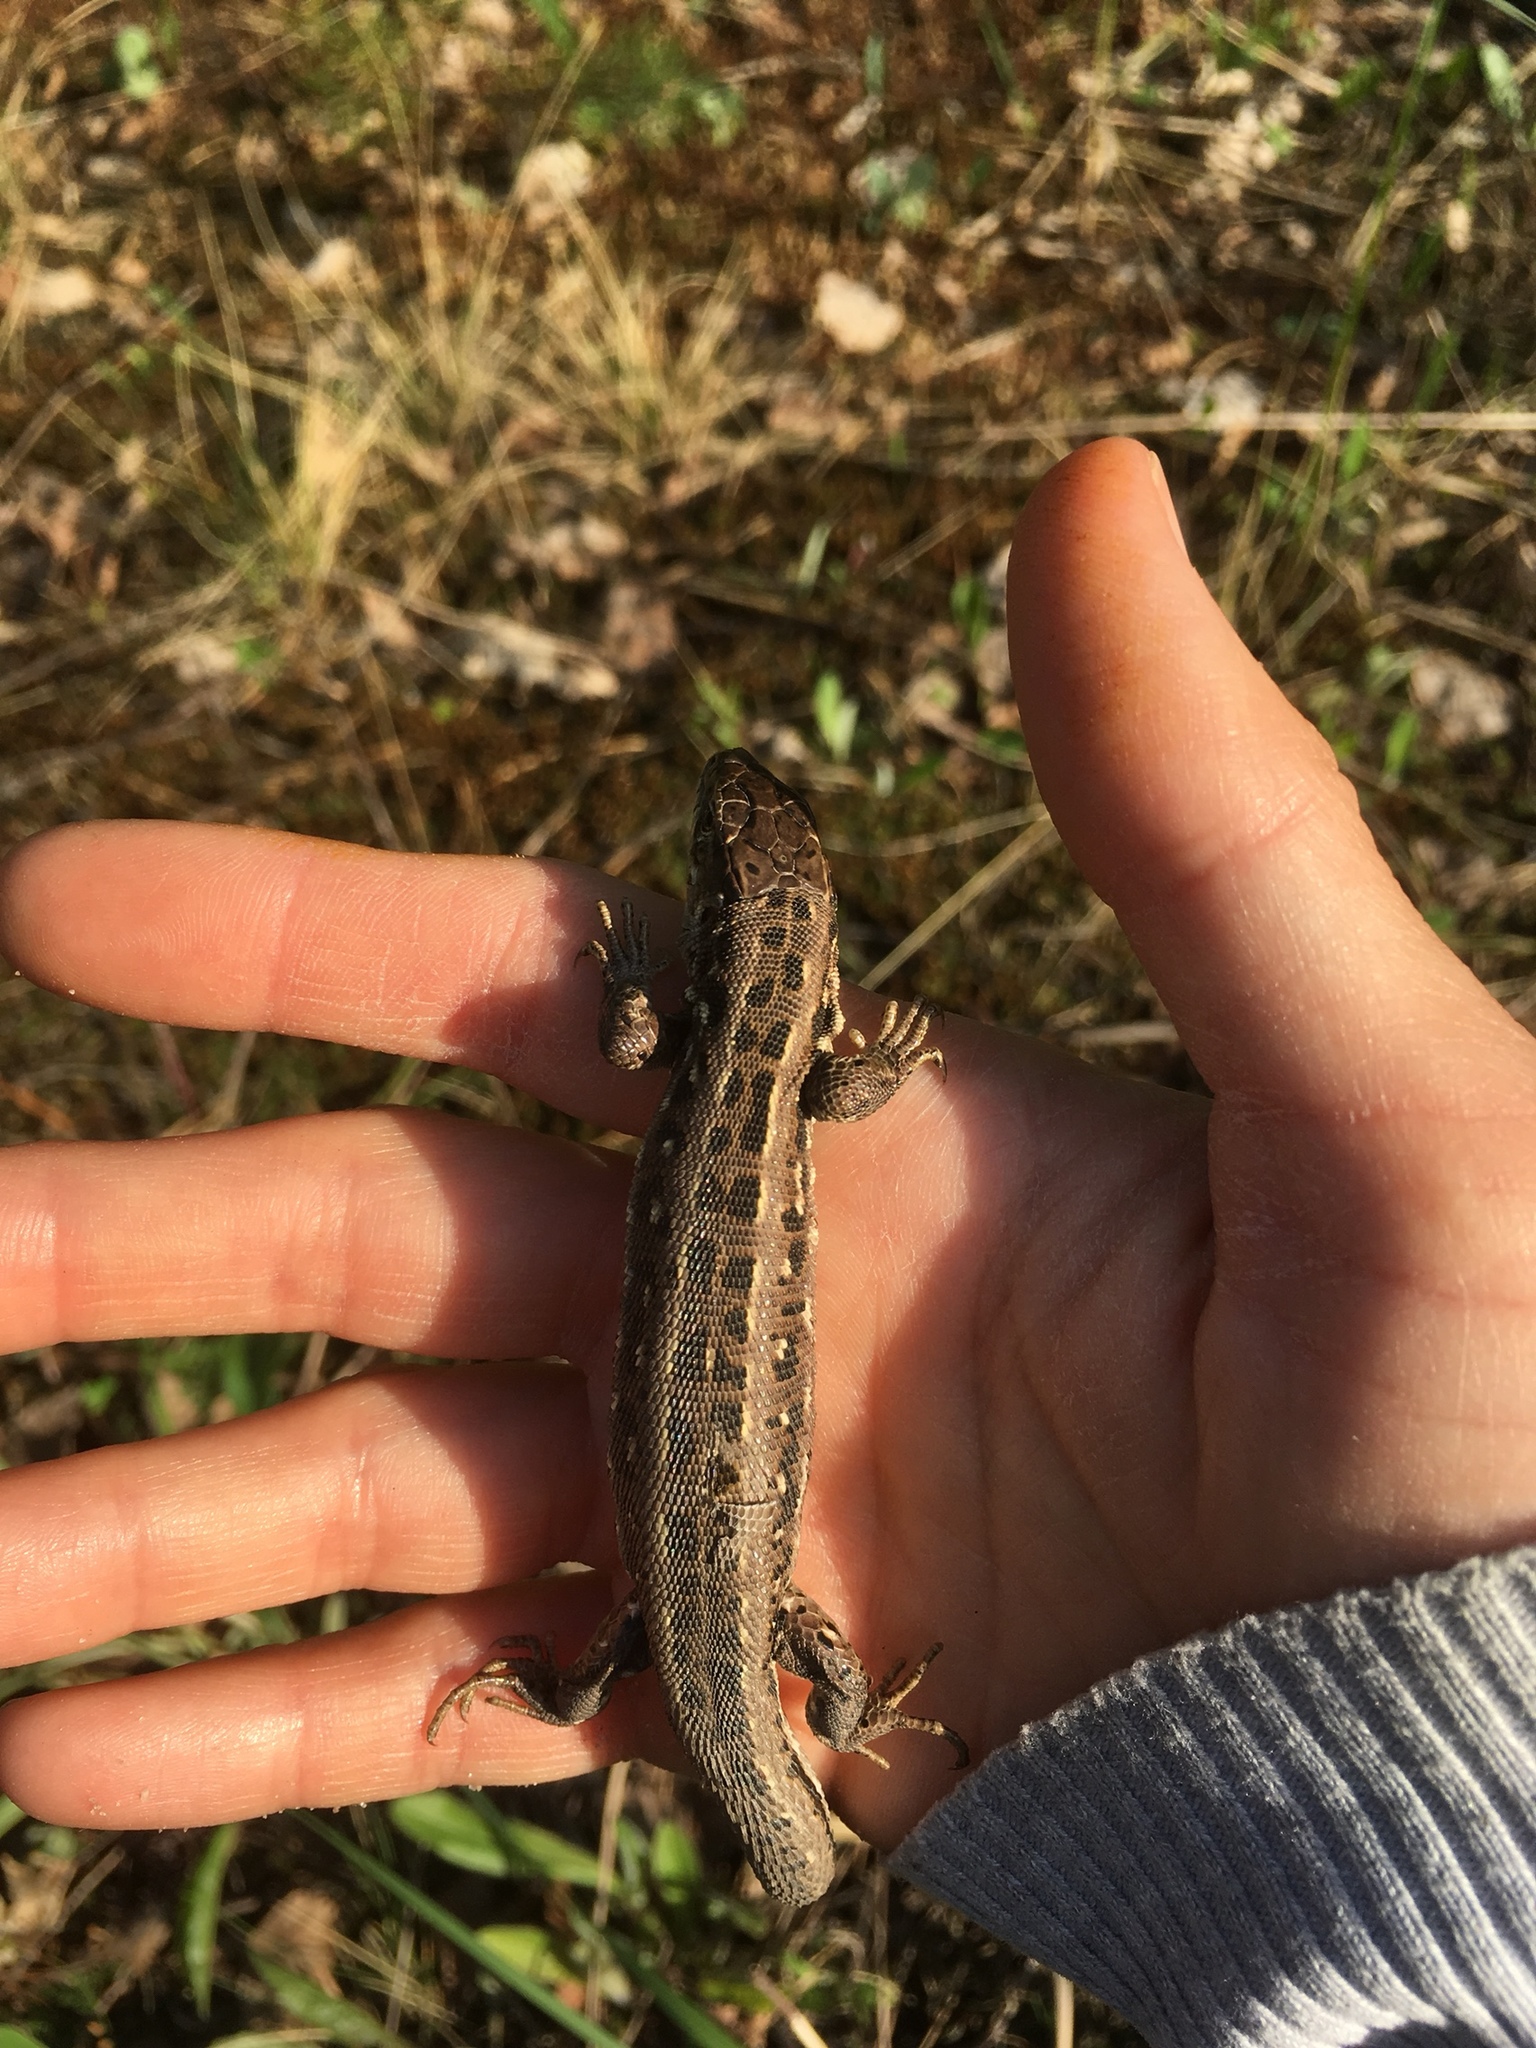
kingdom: Animalia
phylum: Chordata
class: Squamata
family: Lacertidae
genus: Lacerta
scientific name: Lacerta agilis
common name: Sand lizard
